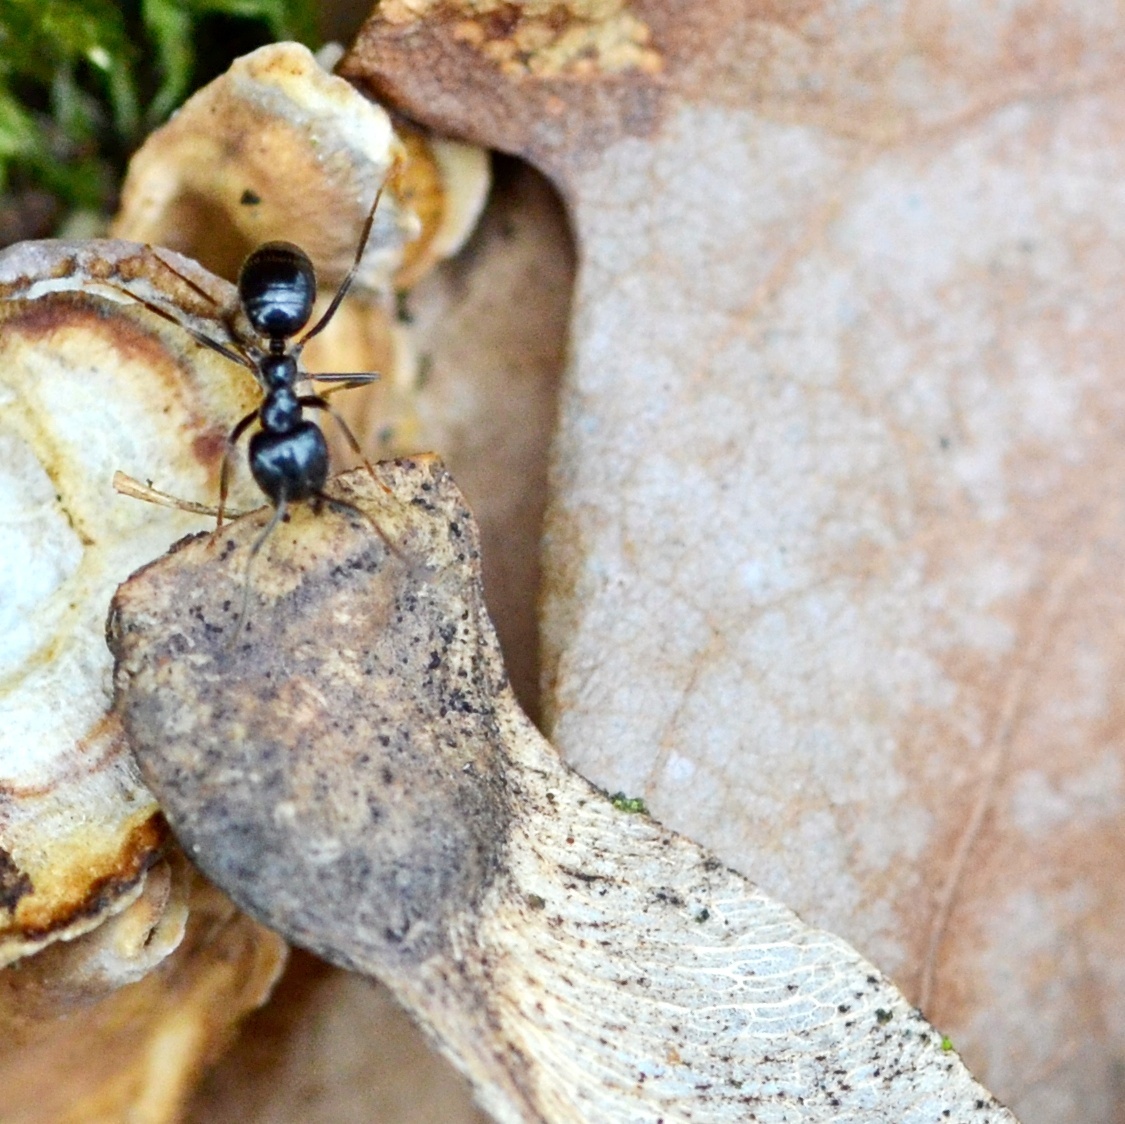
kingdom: Animalia
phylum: Arthropoda
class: Insecta
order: Hymenoptera
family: Formicidae
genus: Lasius
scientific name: Lasius fuliginosus
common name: Jet ant
